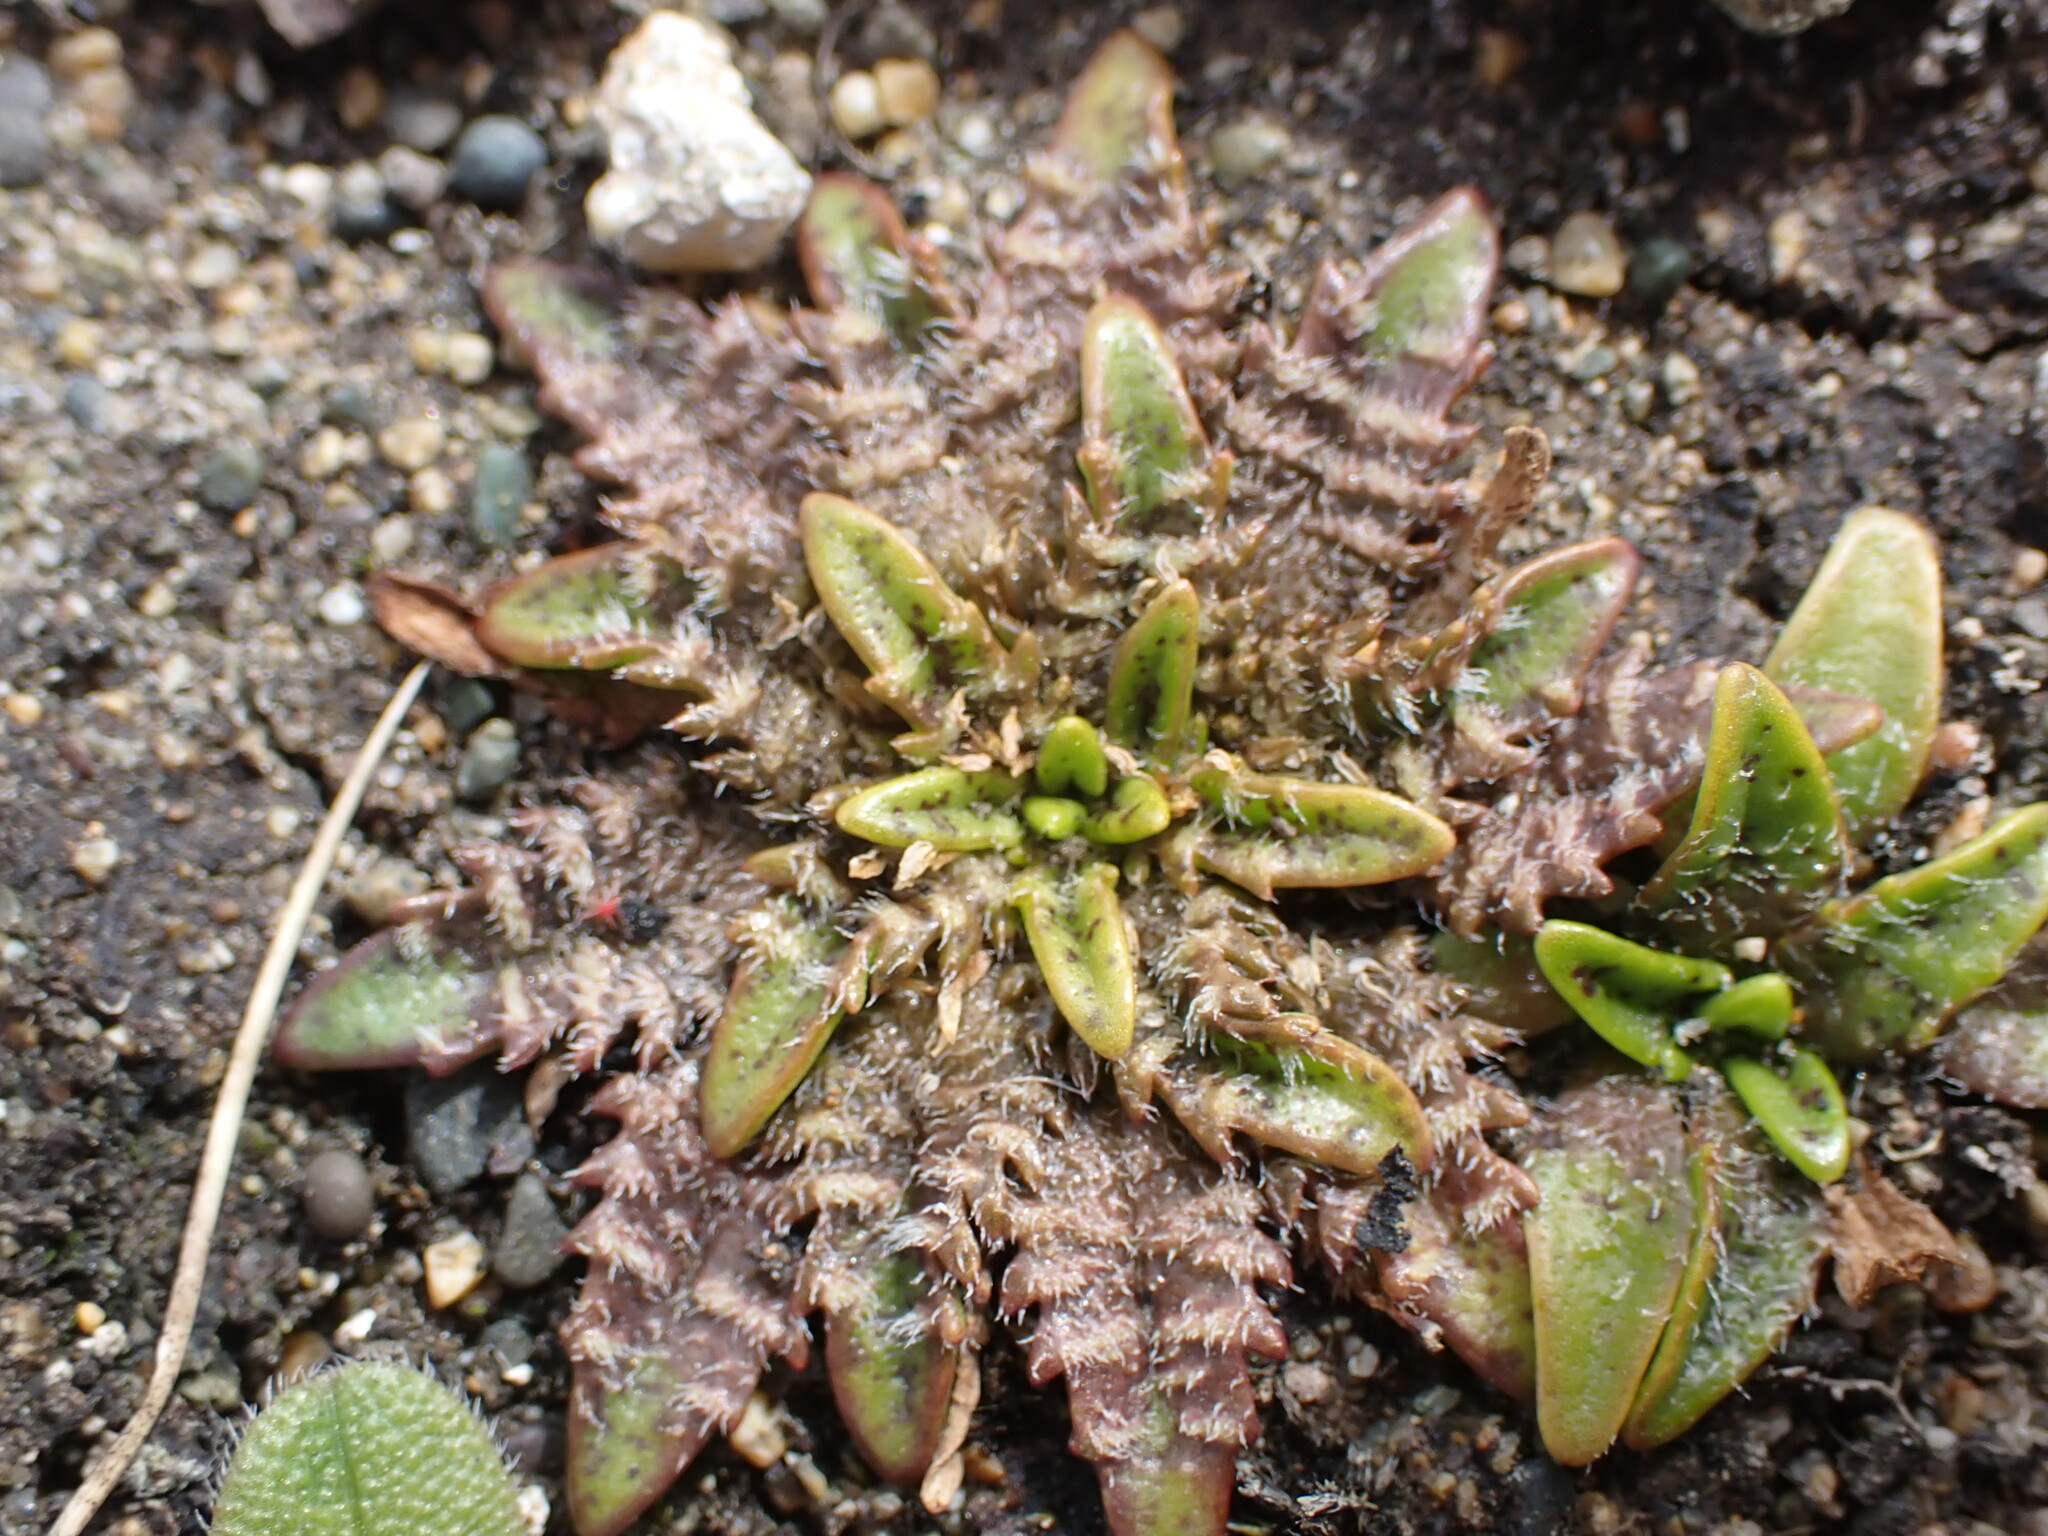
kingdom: Plantae
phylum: Tracheophyta
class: Magnoliopsida
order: Lamiales
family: Plantaginaceae
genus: Plantago
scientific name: Plantago triandra
